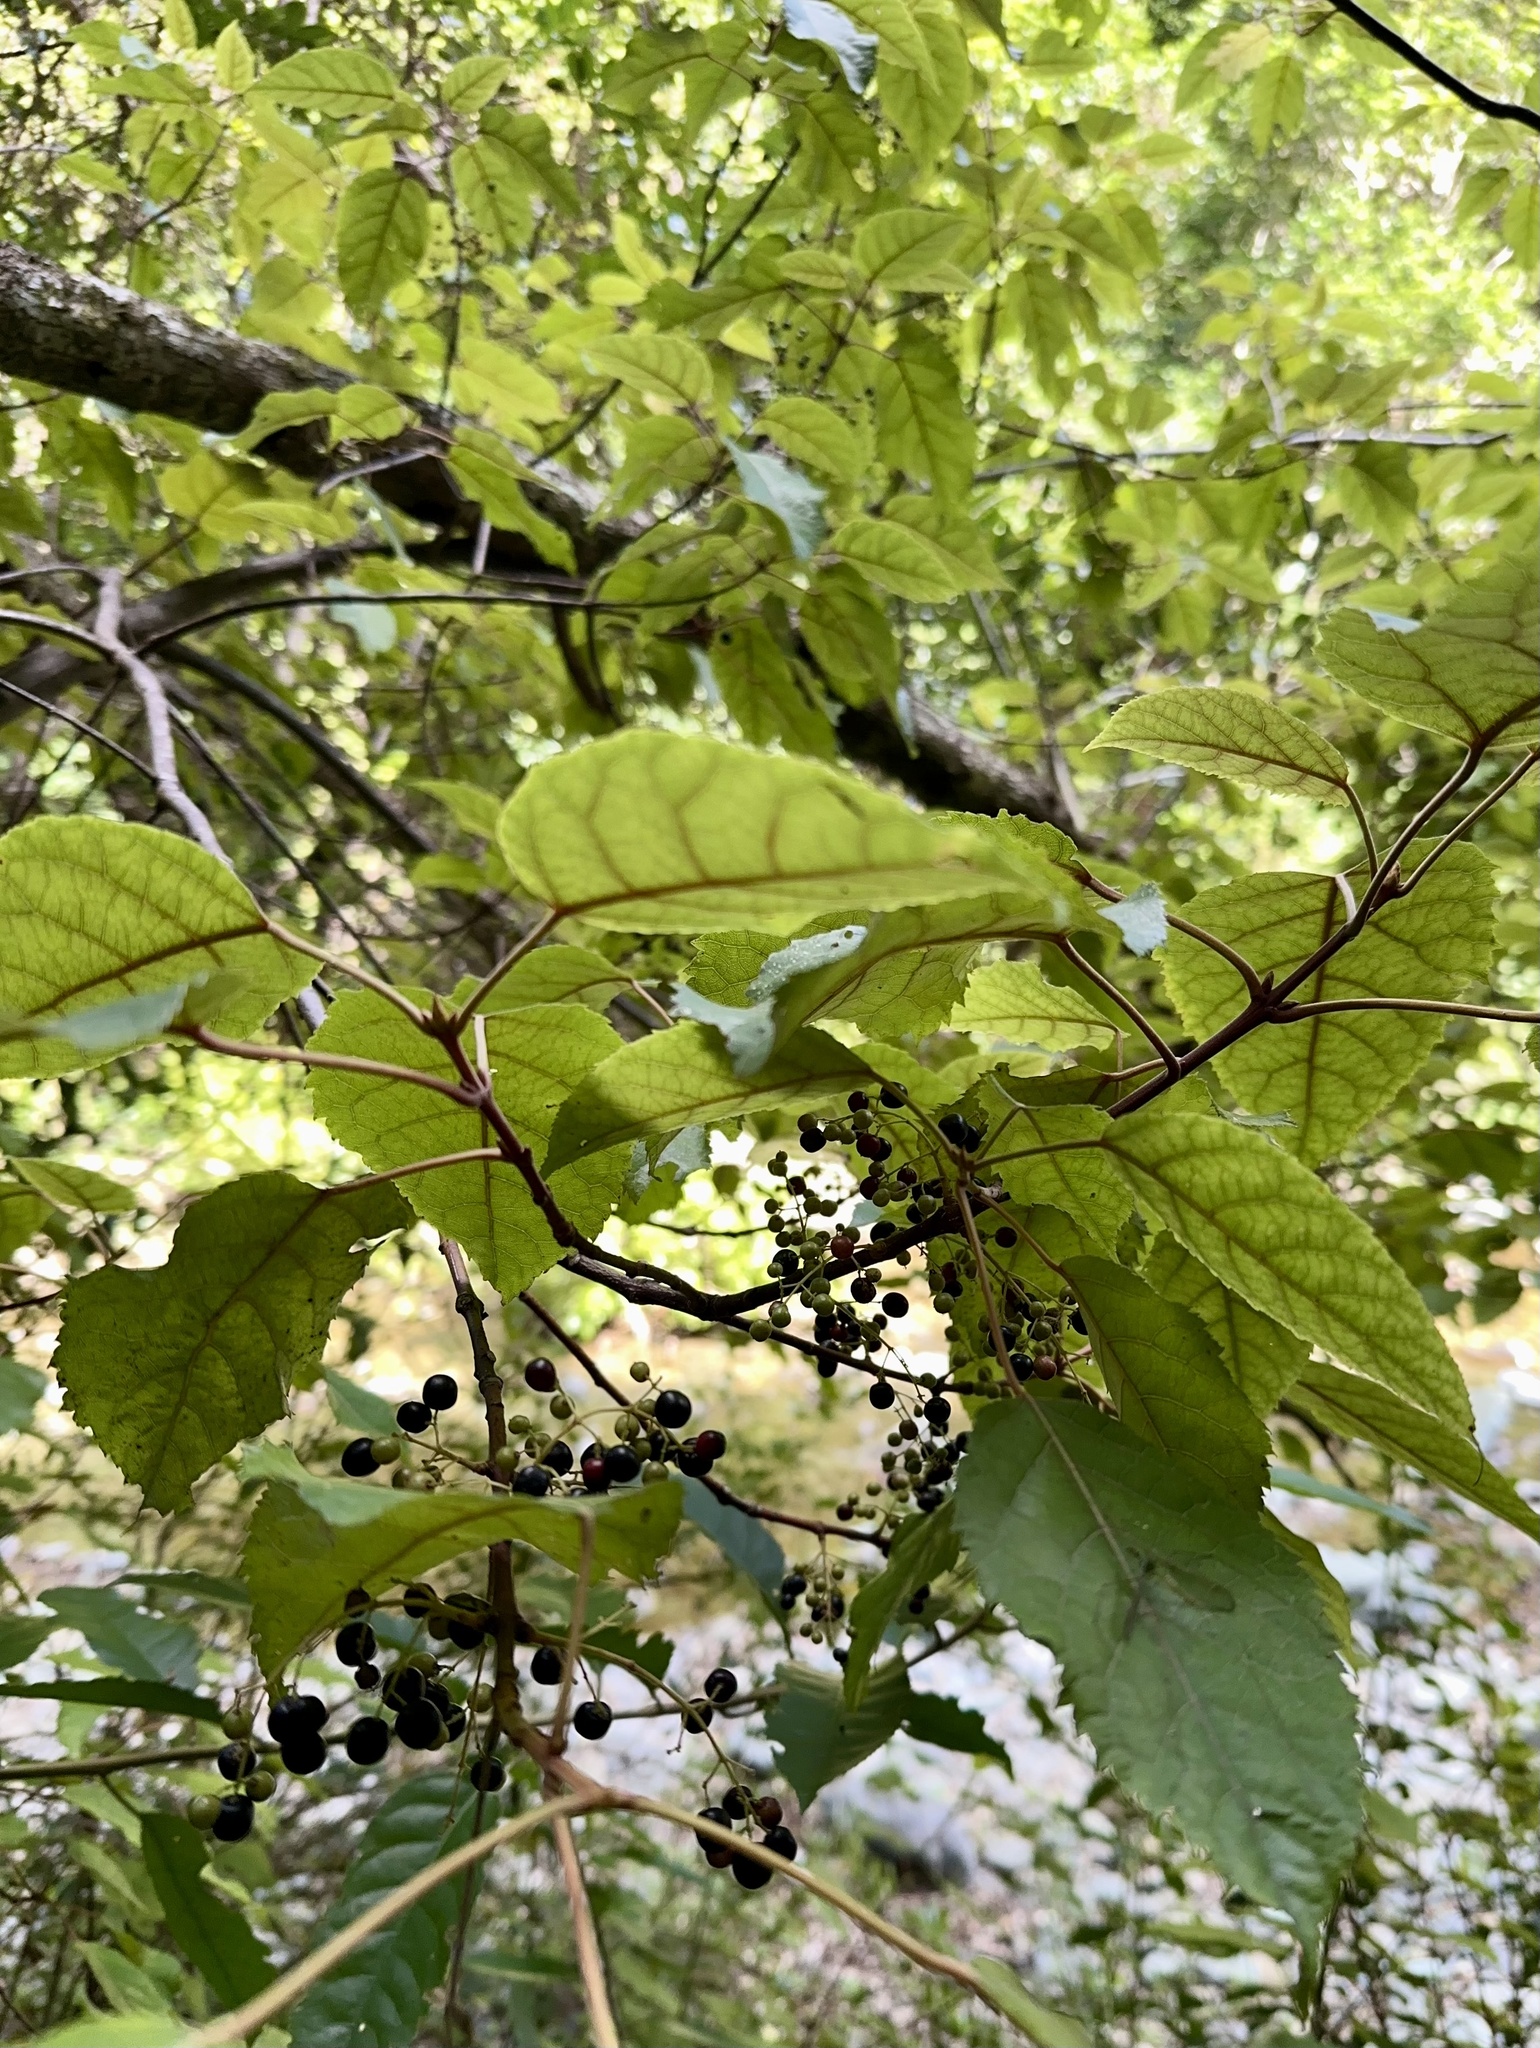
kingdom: Plantae
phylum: Tracheophyta
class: Magnoliopsida
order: Oxalidales
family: Elaeocarpaceae
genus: Aristotelia
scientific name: Aristotelia serrata
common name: New zealand wineberry
